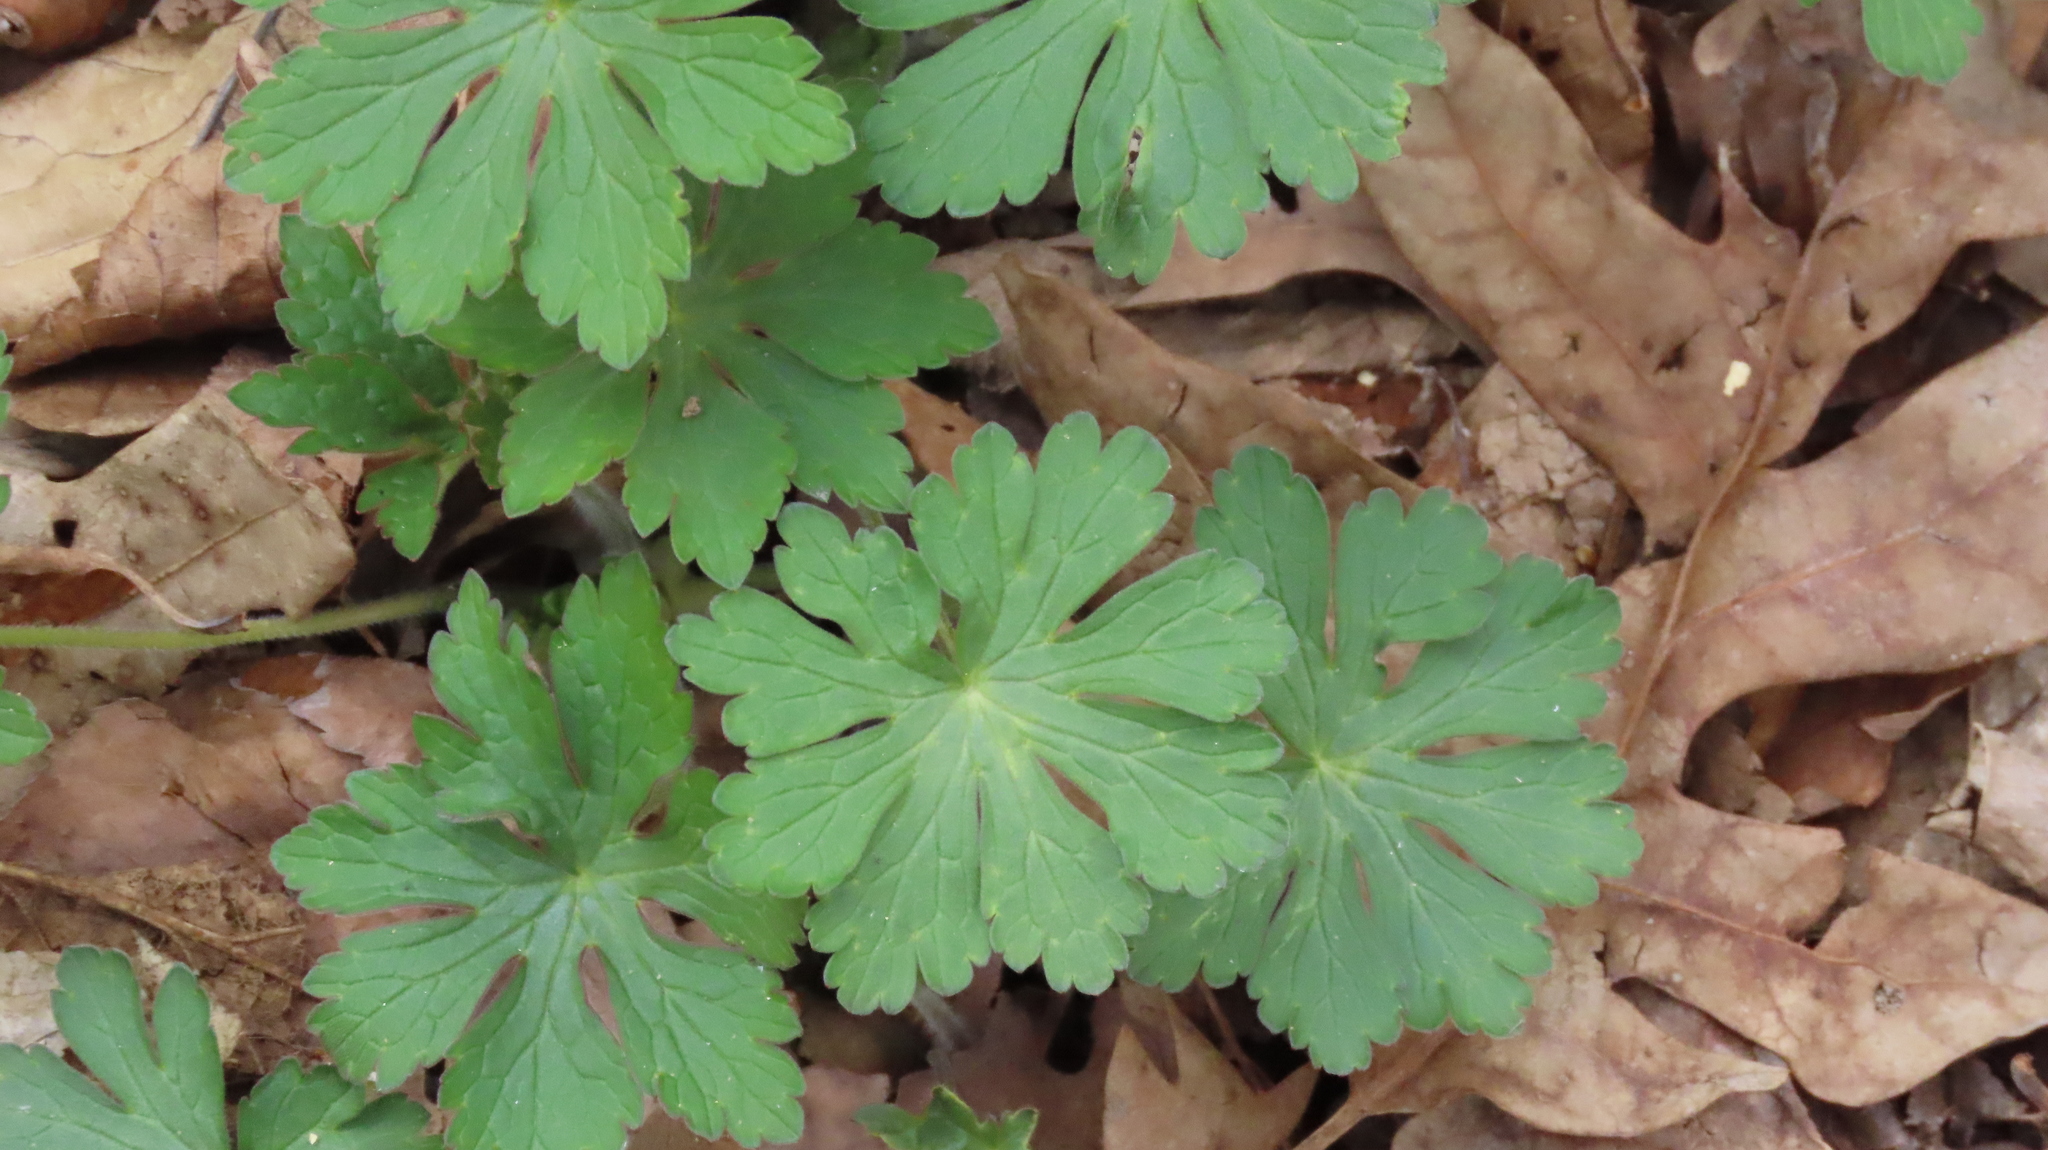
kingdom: Plantae
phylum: Tracheophyta
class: Magnoliopsida
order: Geraniales
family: Geraniaceae
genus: Geranium
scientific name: Geranium maculatum
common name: Spotted geranium
